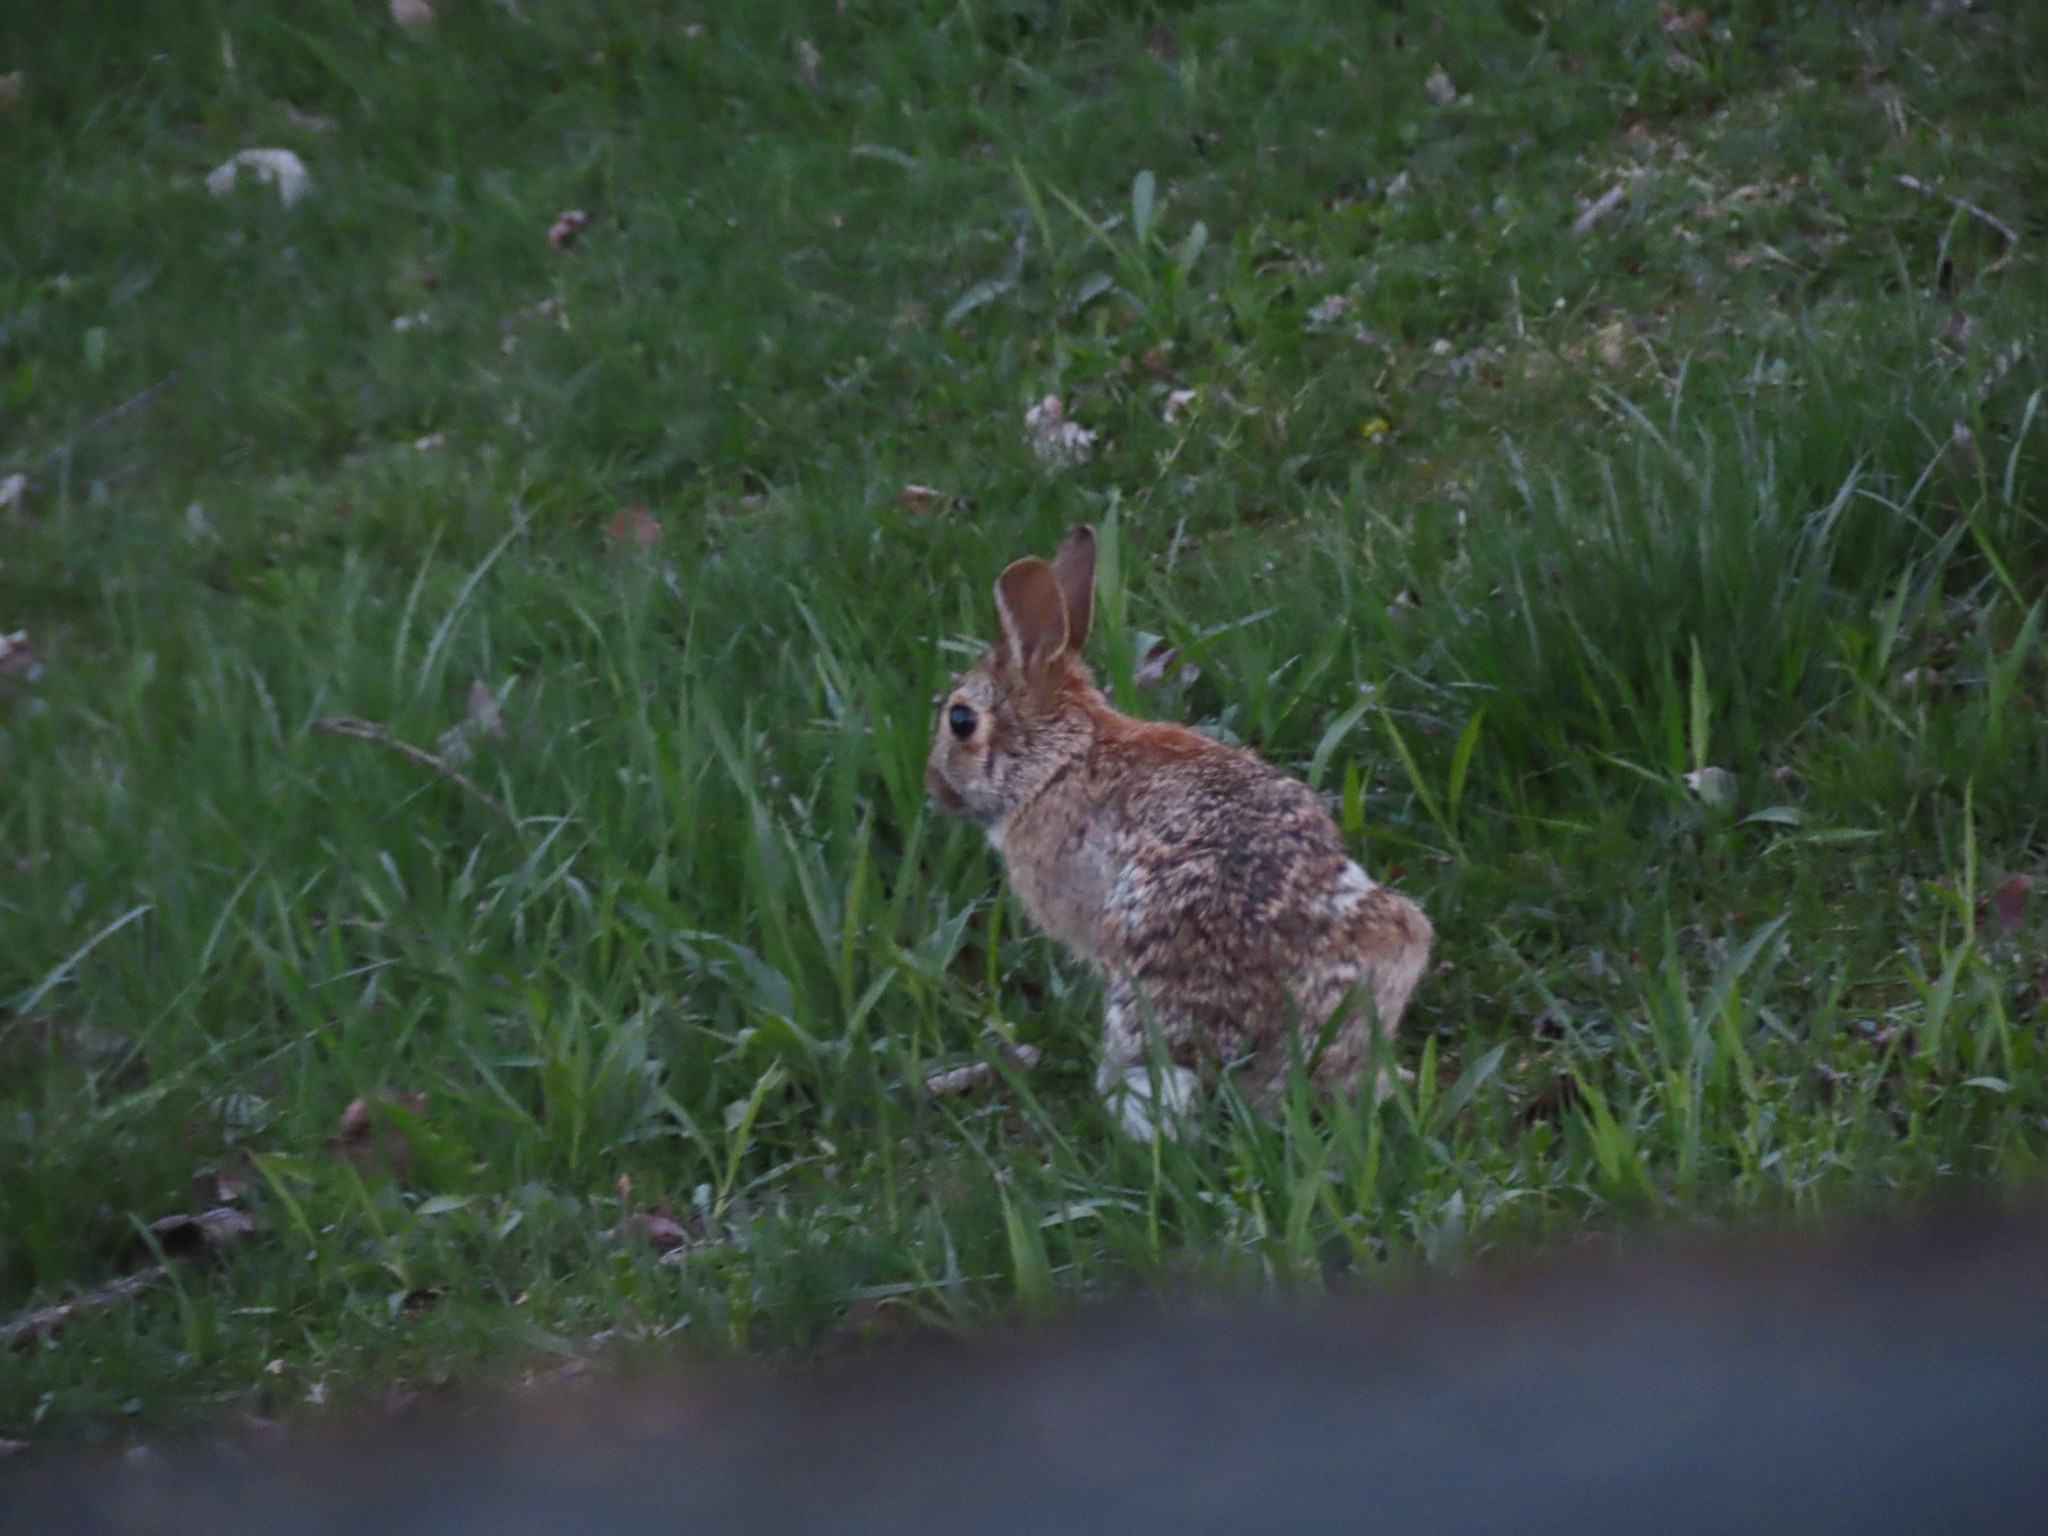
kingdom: Animalia
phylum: Chordata
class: Mammalia
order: Lagomorpha
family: Leporidae
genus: Sylvilagus
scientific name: Sylvilagus floridanus
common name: Eastern cottontail
